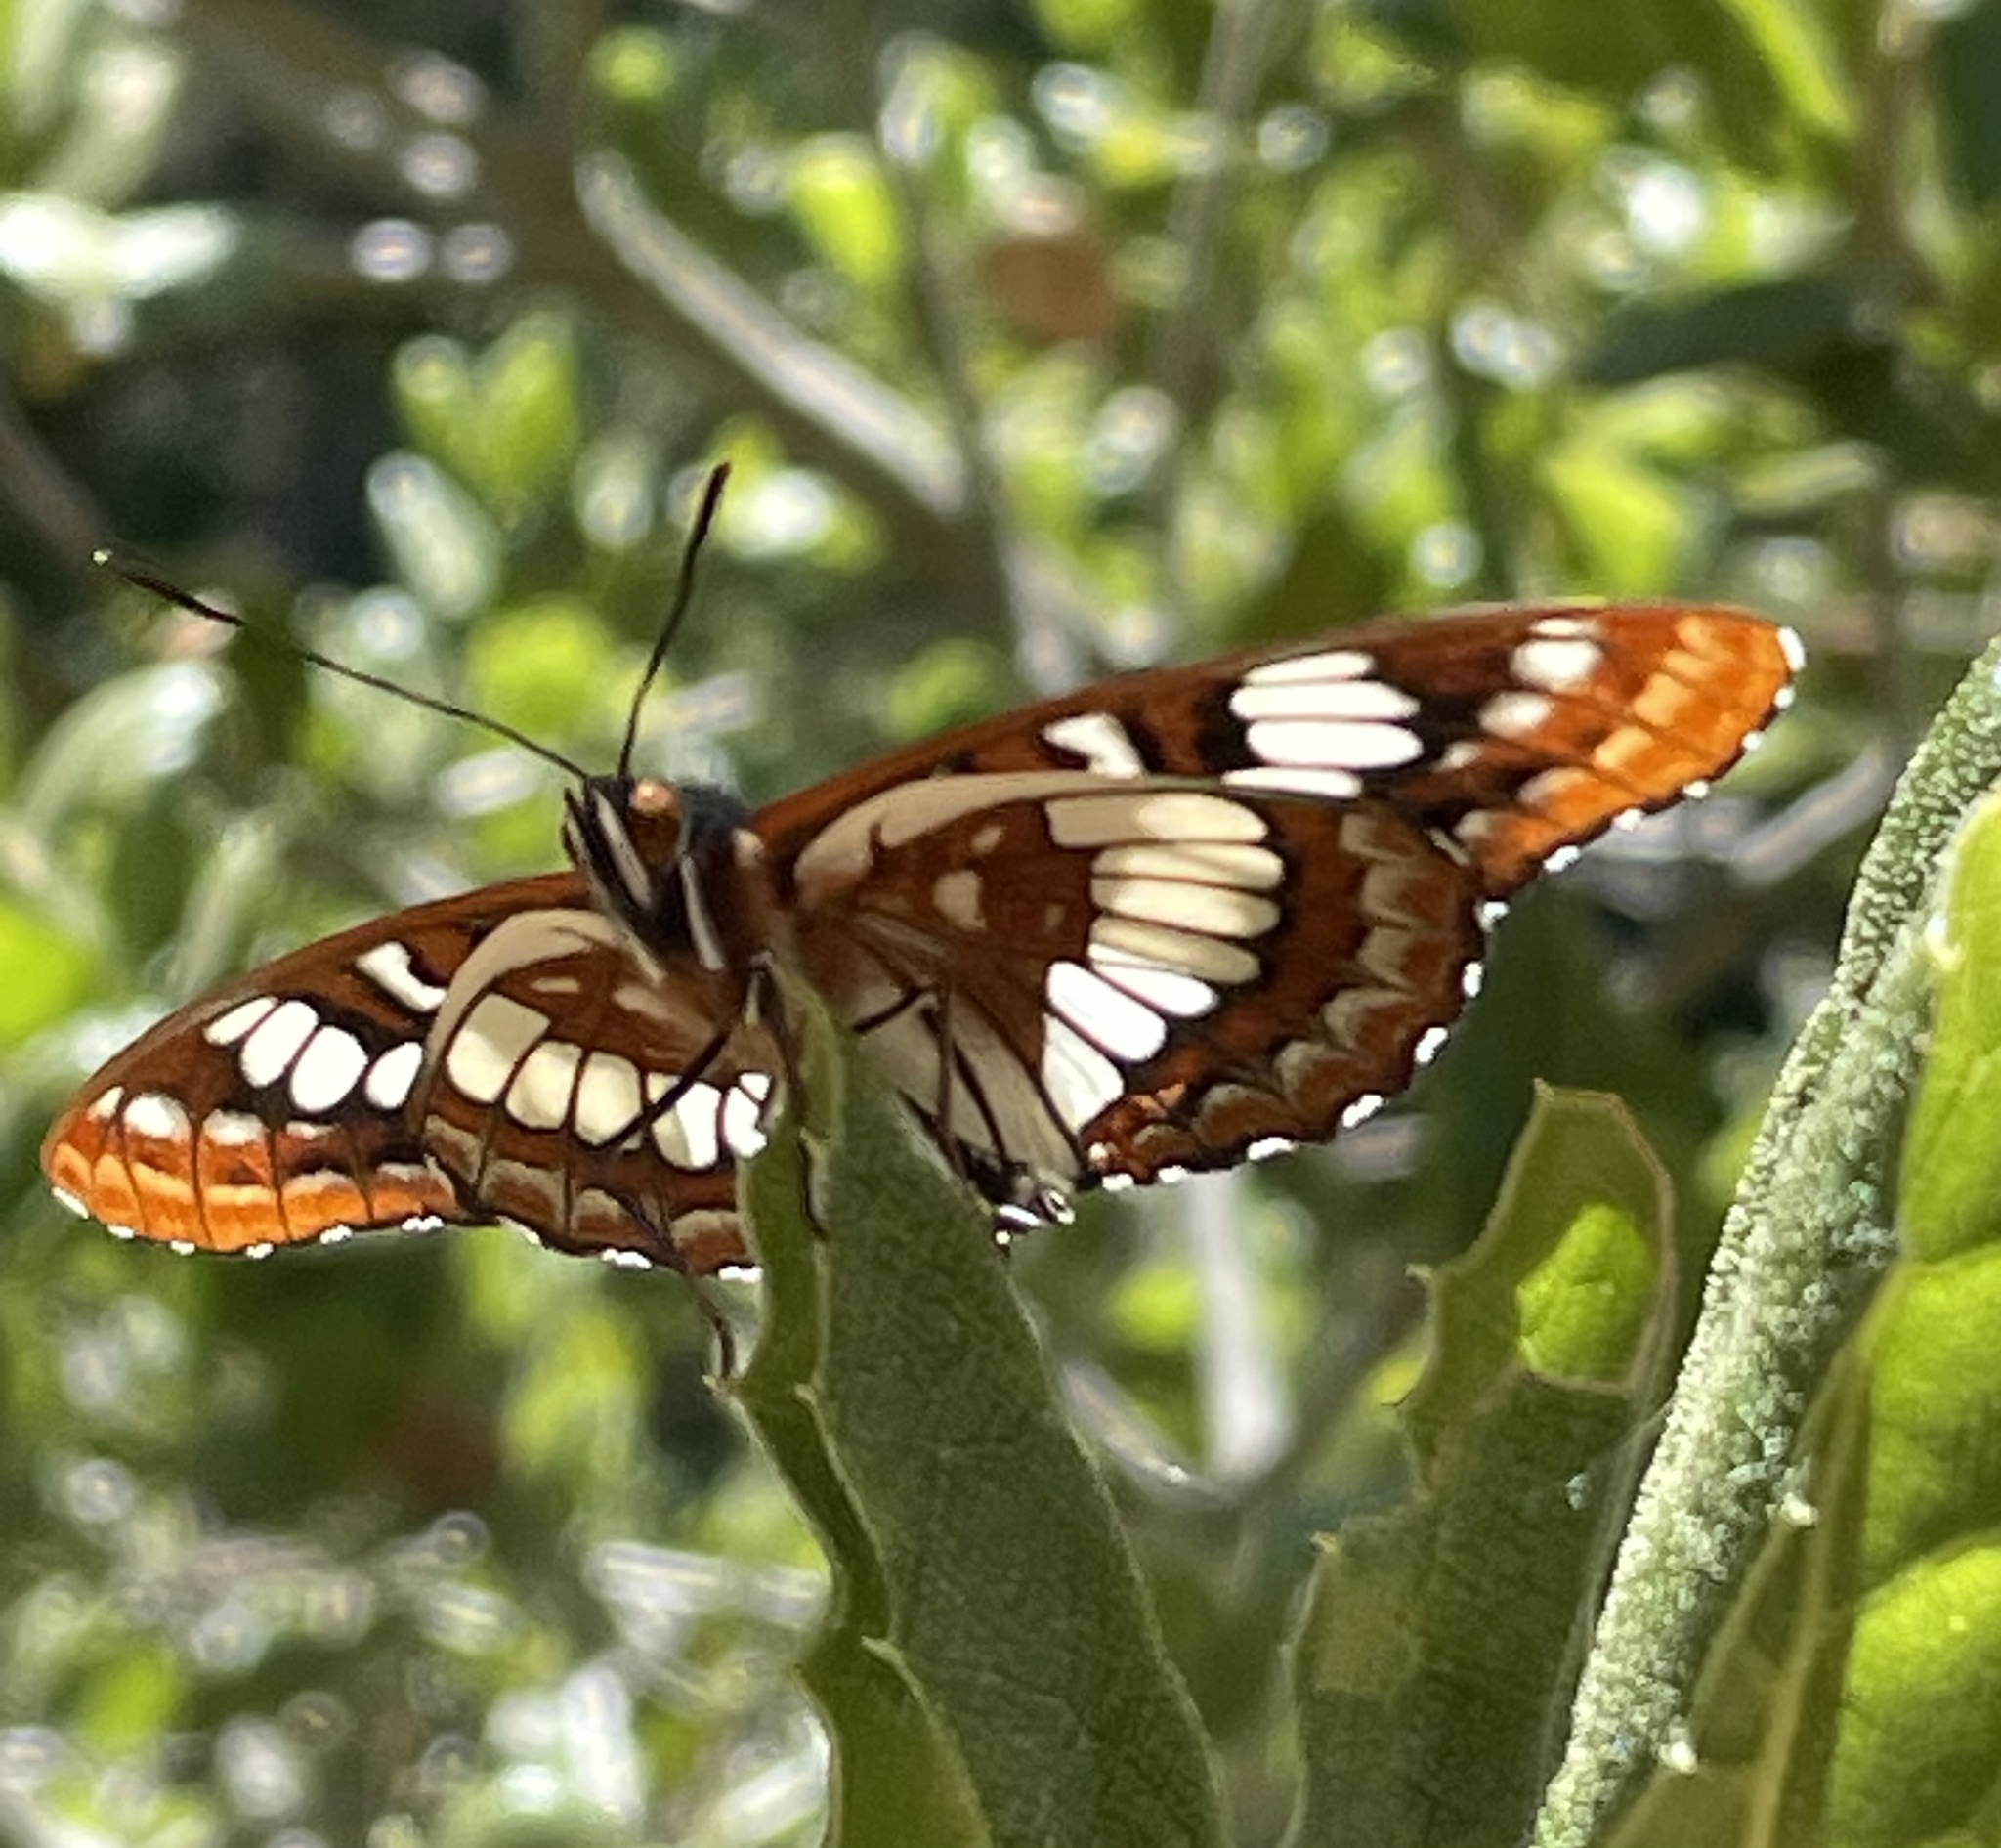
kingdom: Animalia
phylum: Arthropoda
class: Insecta
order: Lepidoptera
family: Nymphalidae
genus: Limenitis
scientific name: Limenitis lorquini
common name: Lorquin's admiral
